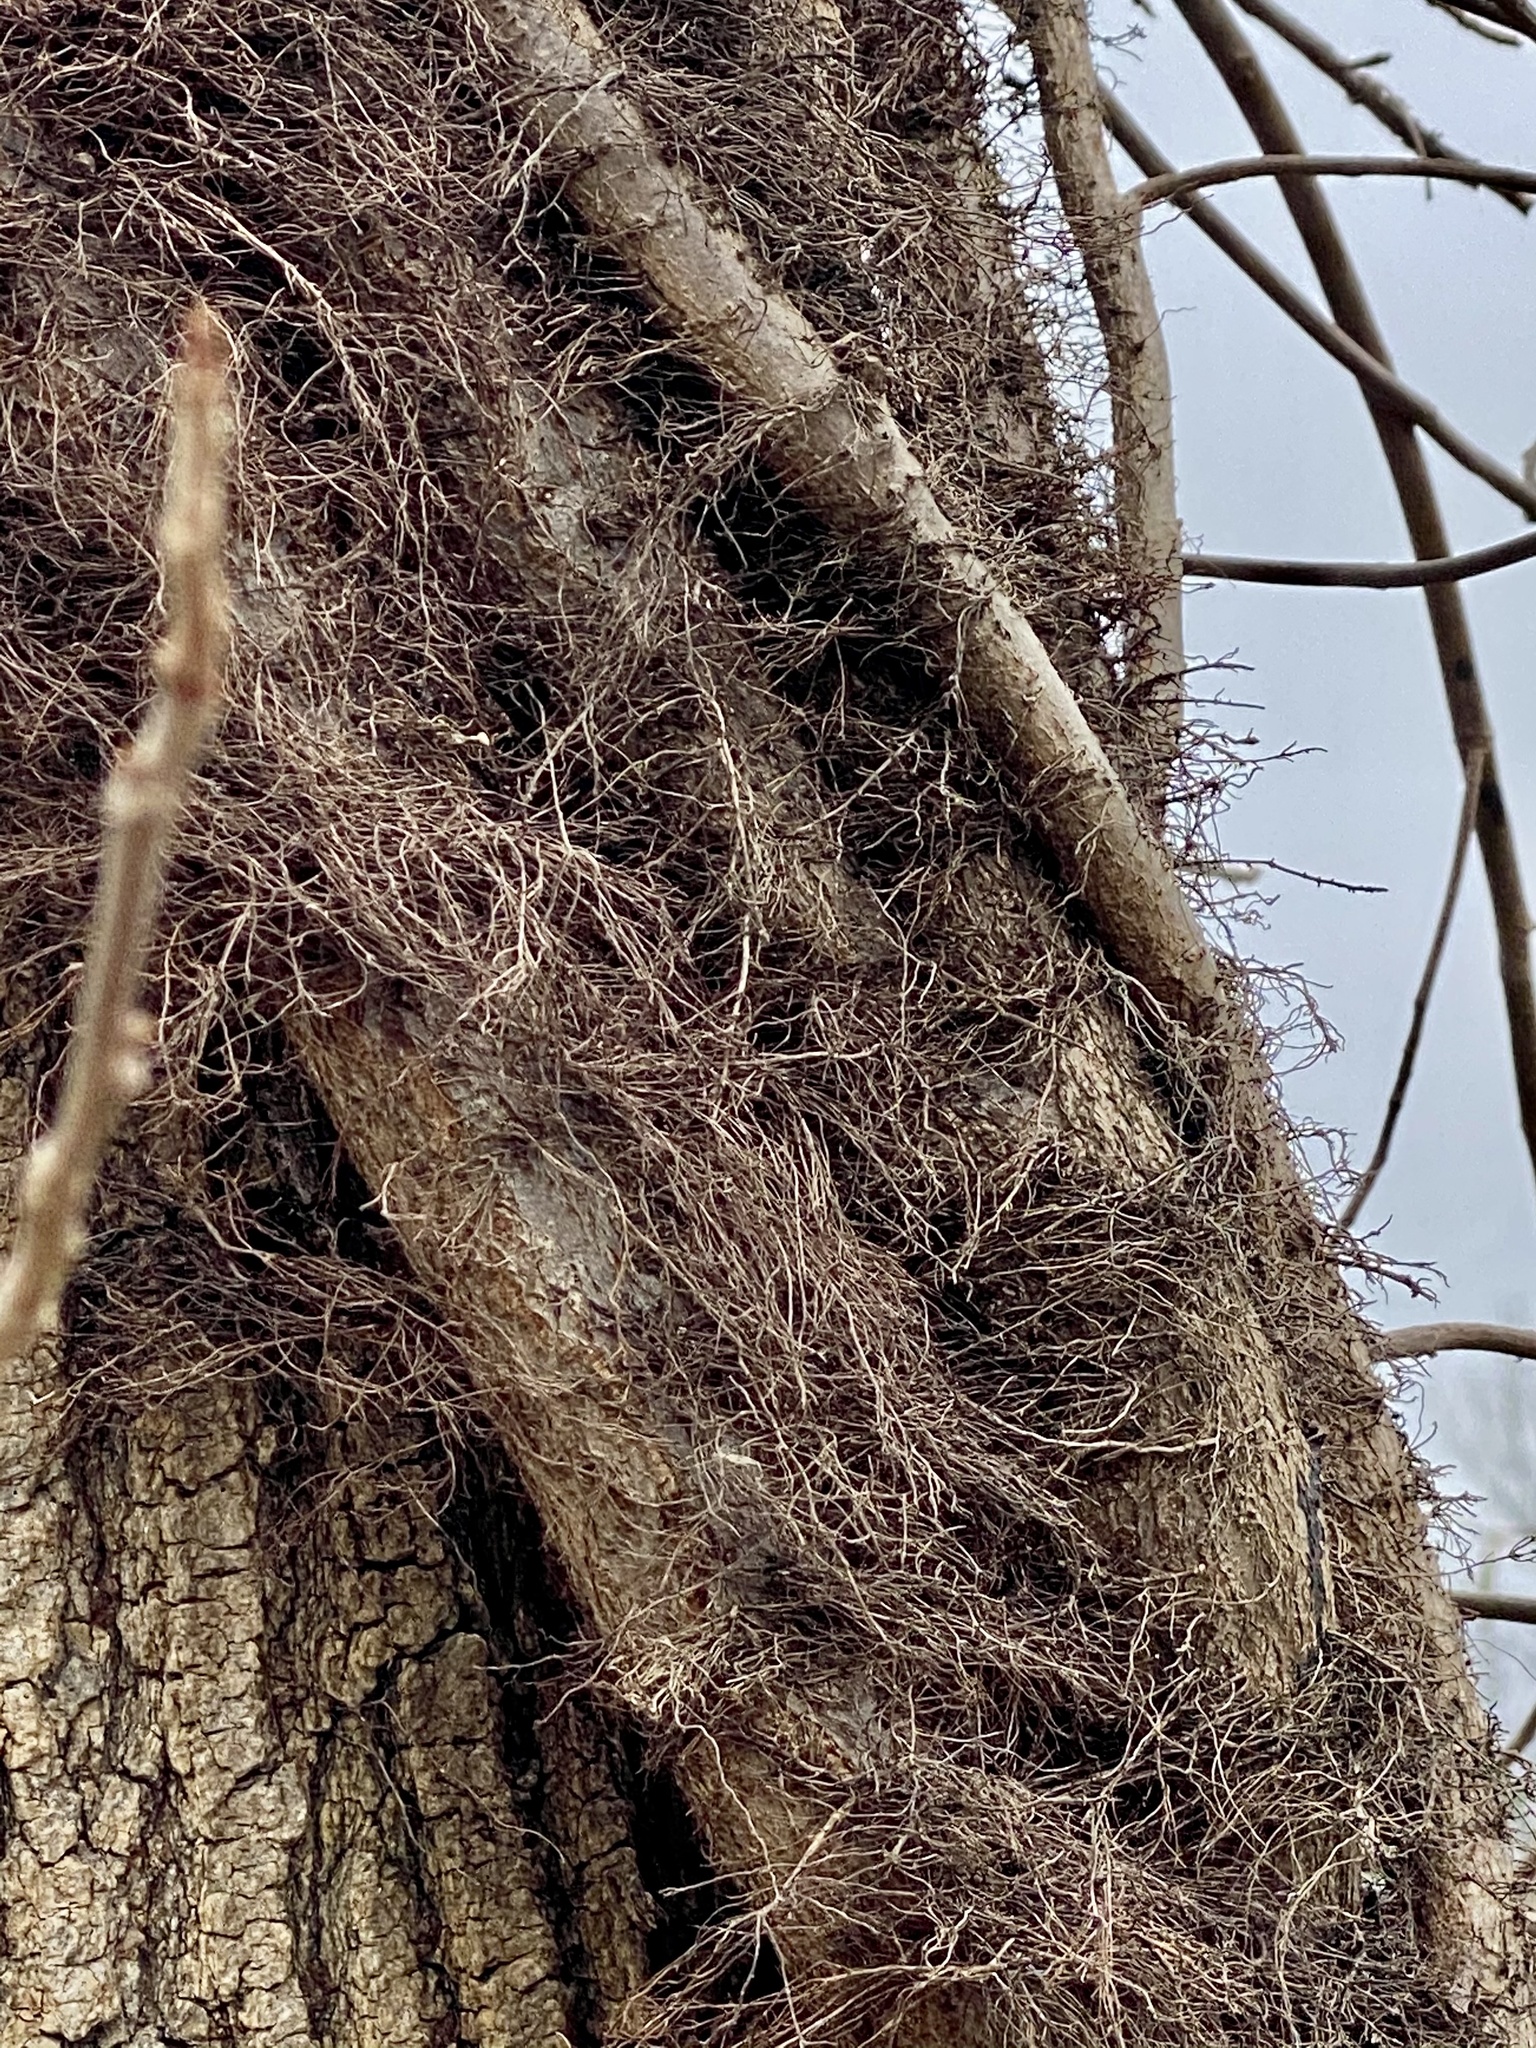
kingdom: Plantae
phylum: Tracheophyta
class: Magnoliopsida
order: Sapindales
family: Anacardiaceae
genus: Toxicodendron
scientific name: Toxicodendron radicans
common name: Poison ivy
